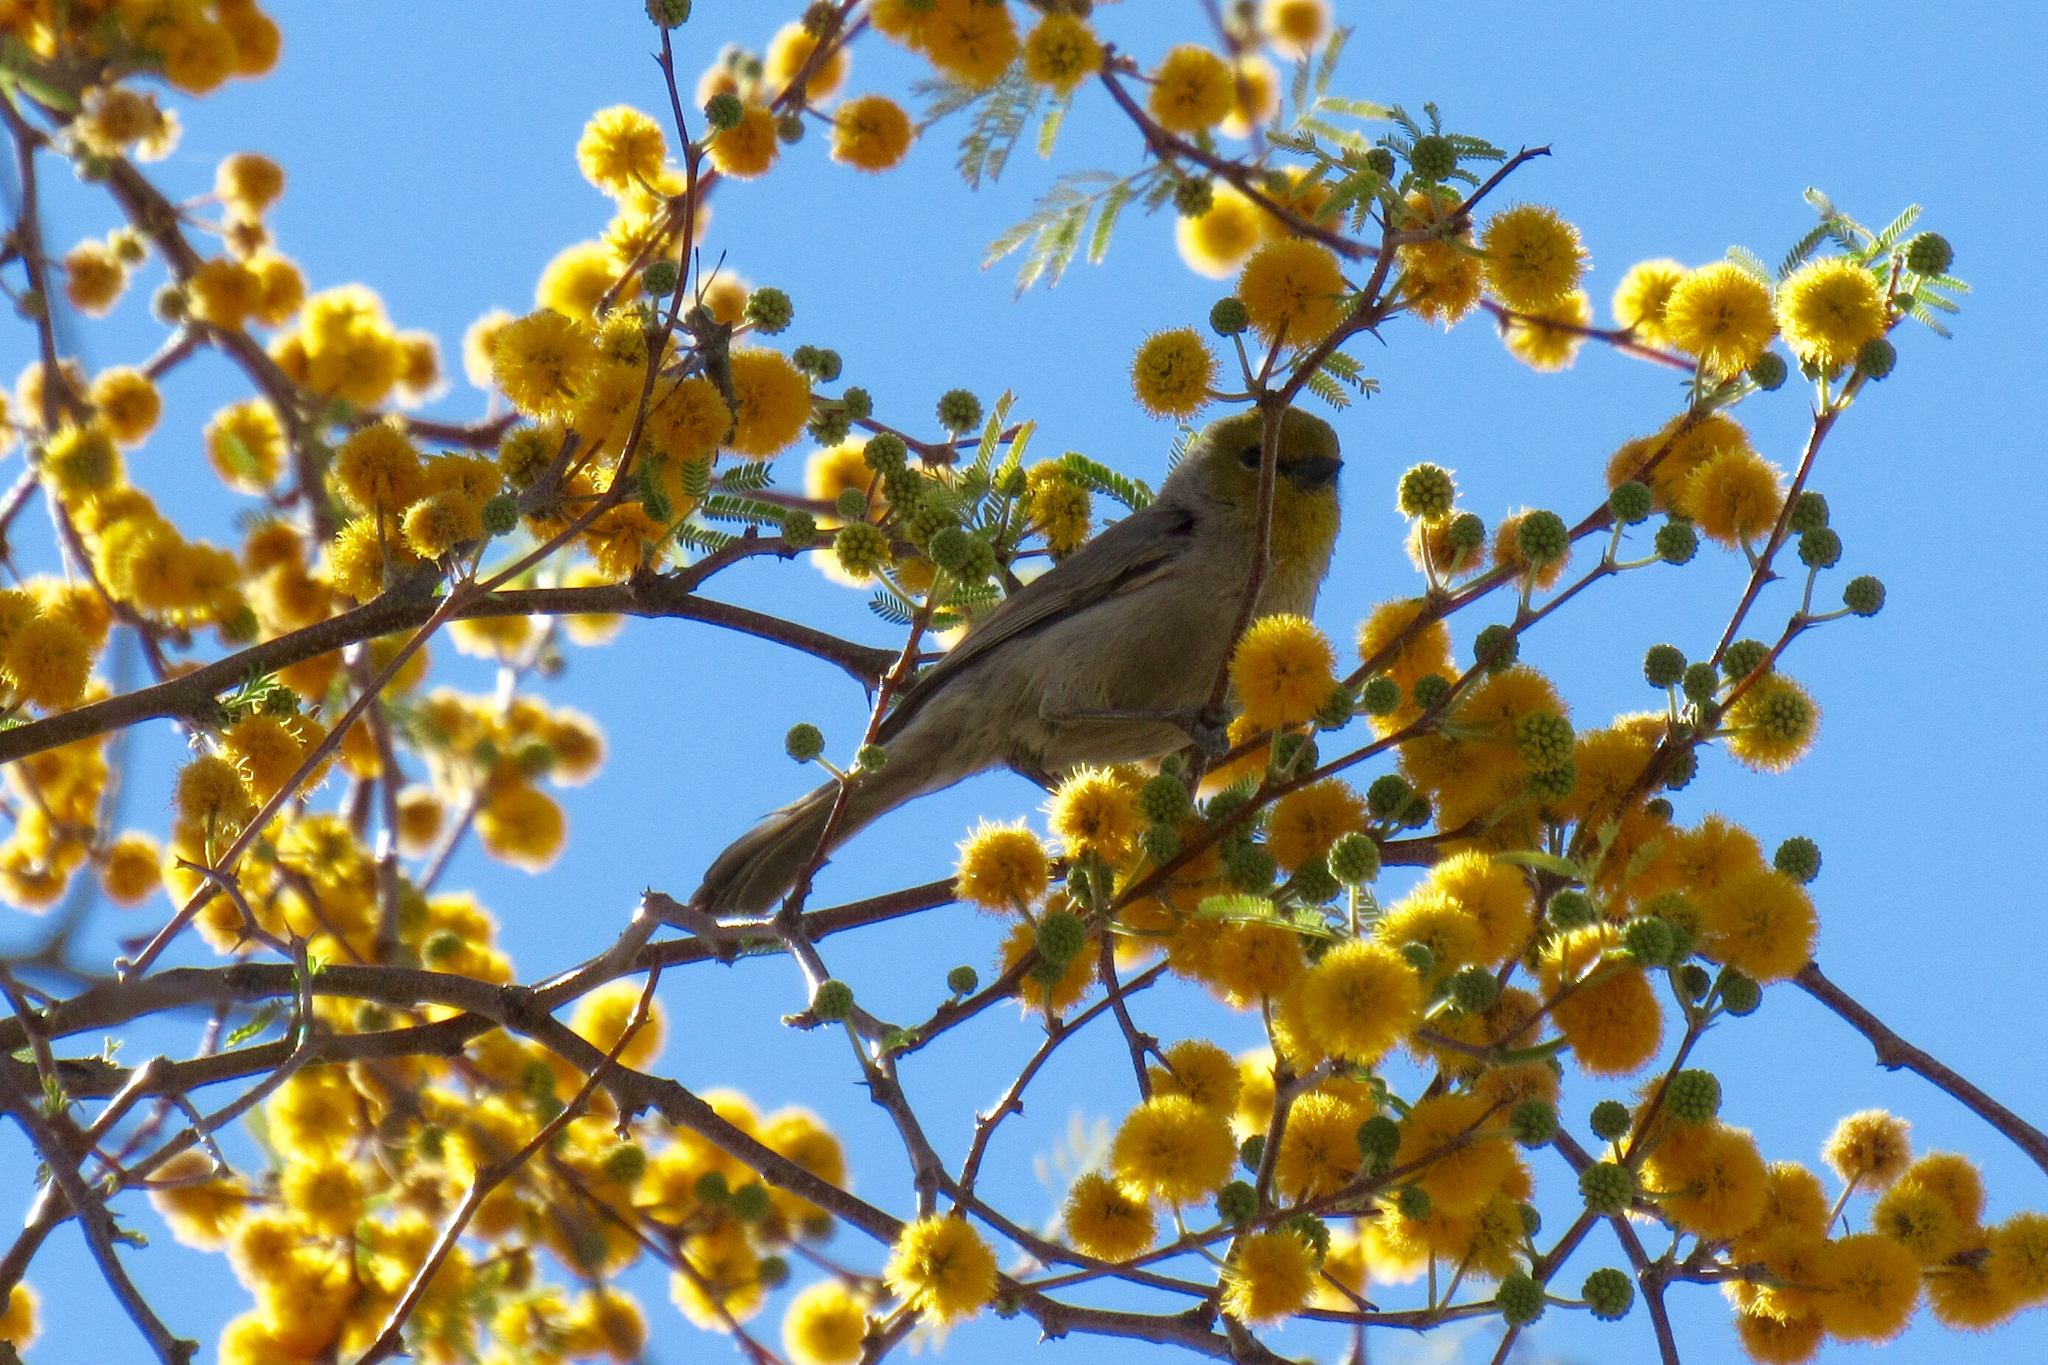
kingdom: Animalia
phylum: Chordata
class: Aves
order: Passeriformes
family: Remizidae
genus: Auriparus
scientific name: Auriparus flaviceps
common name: Verdin
